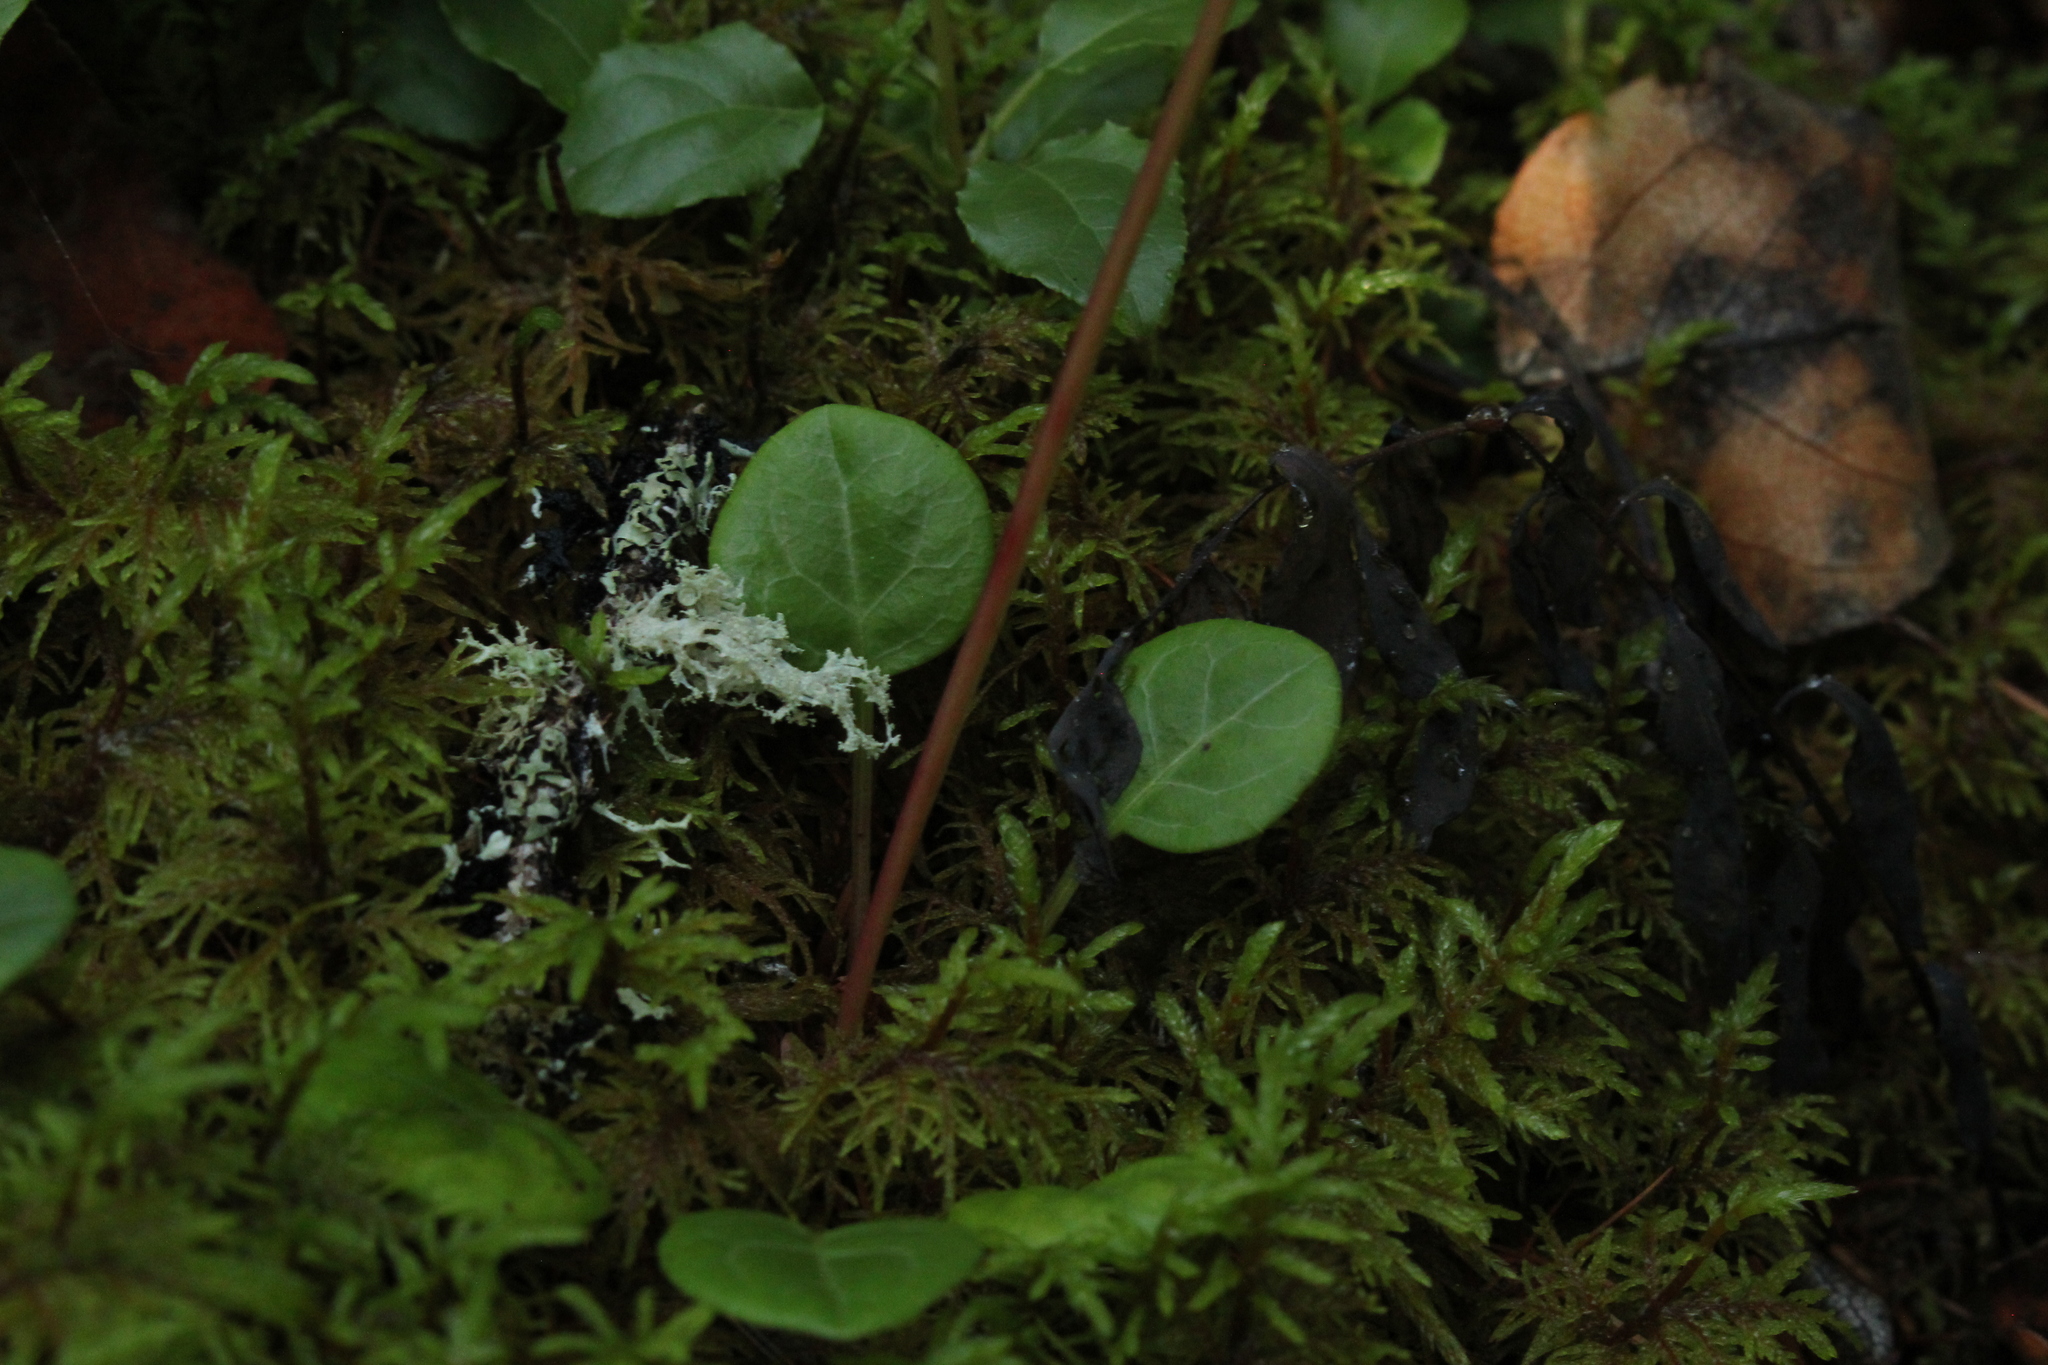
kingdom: Plantae
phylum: Tracheophyta
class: Magnoliopsida
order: Ericales
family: Ericaceae
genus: Pyrola
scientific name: Pyrola chlorantha
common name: Green wintergreen
